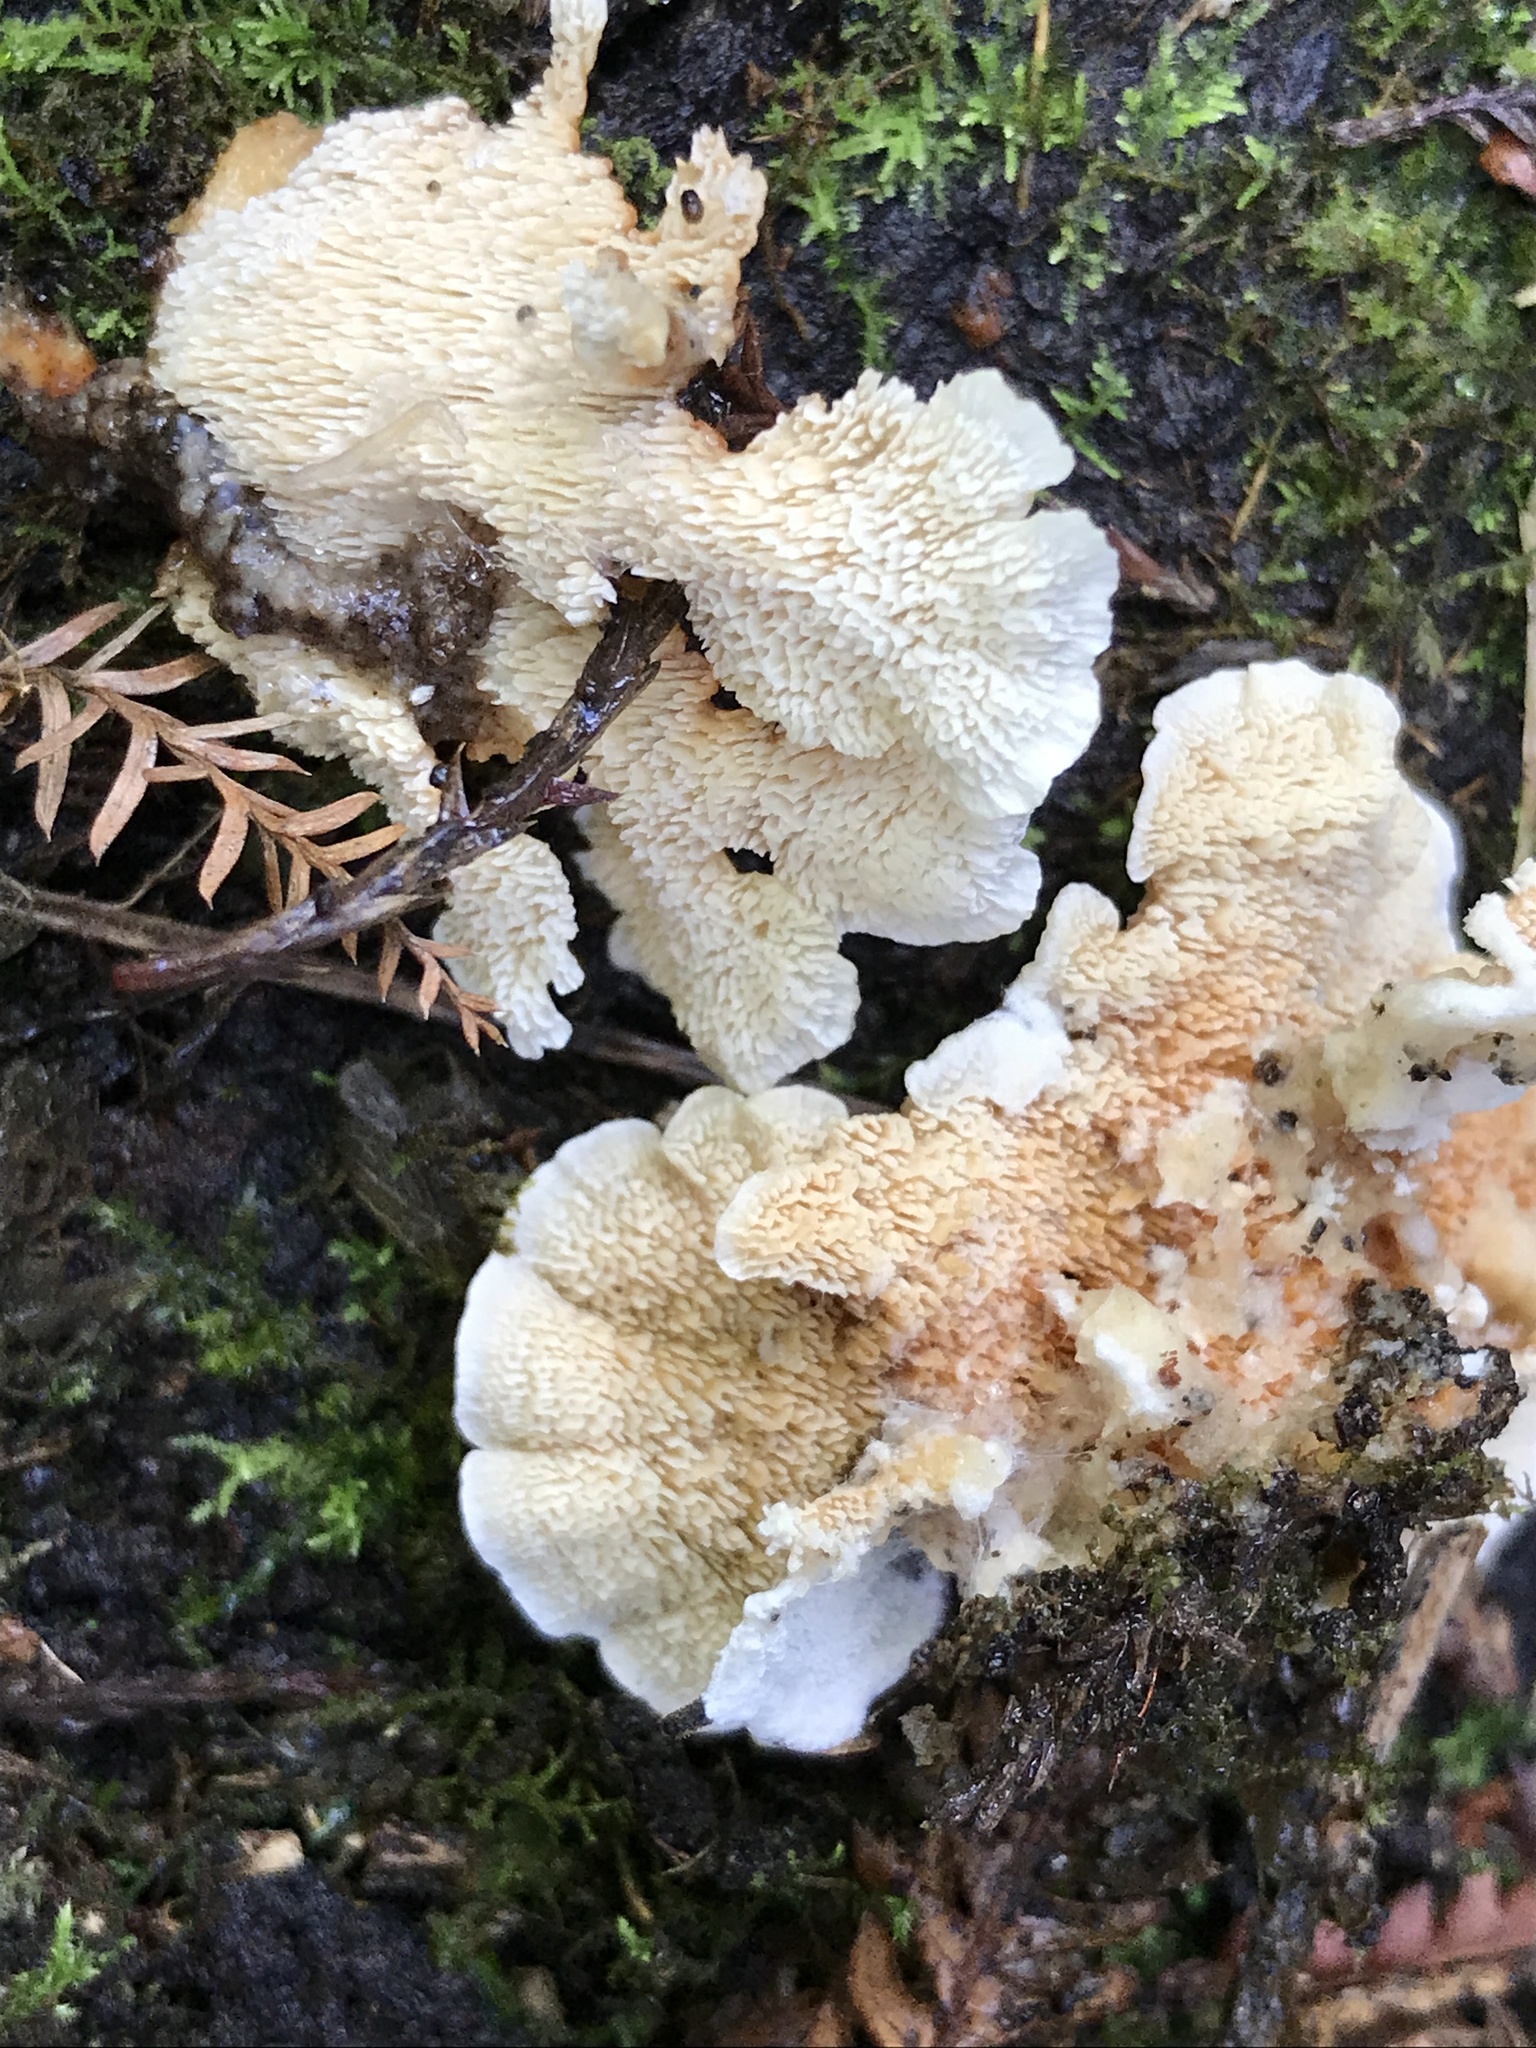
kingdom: Fungi
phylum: Basidiomycota
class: Agaricomycetes
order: Polyporales
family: Cerrenaceae
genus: Cerrena
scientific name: Cerrena zonata
